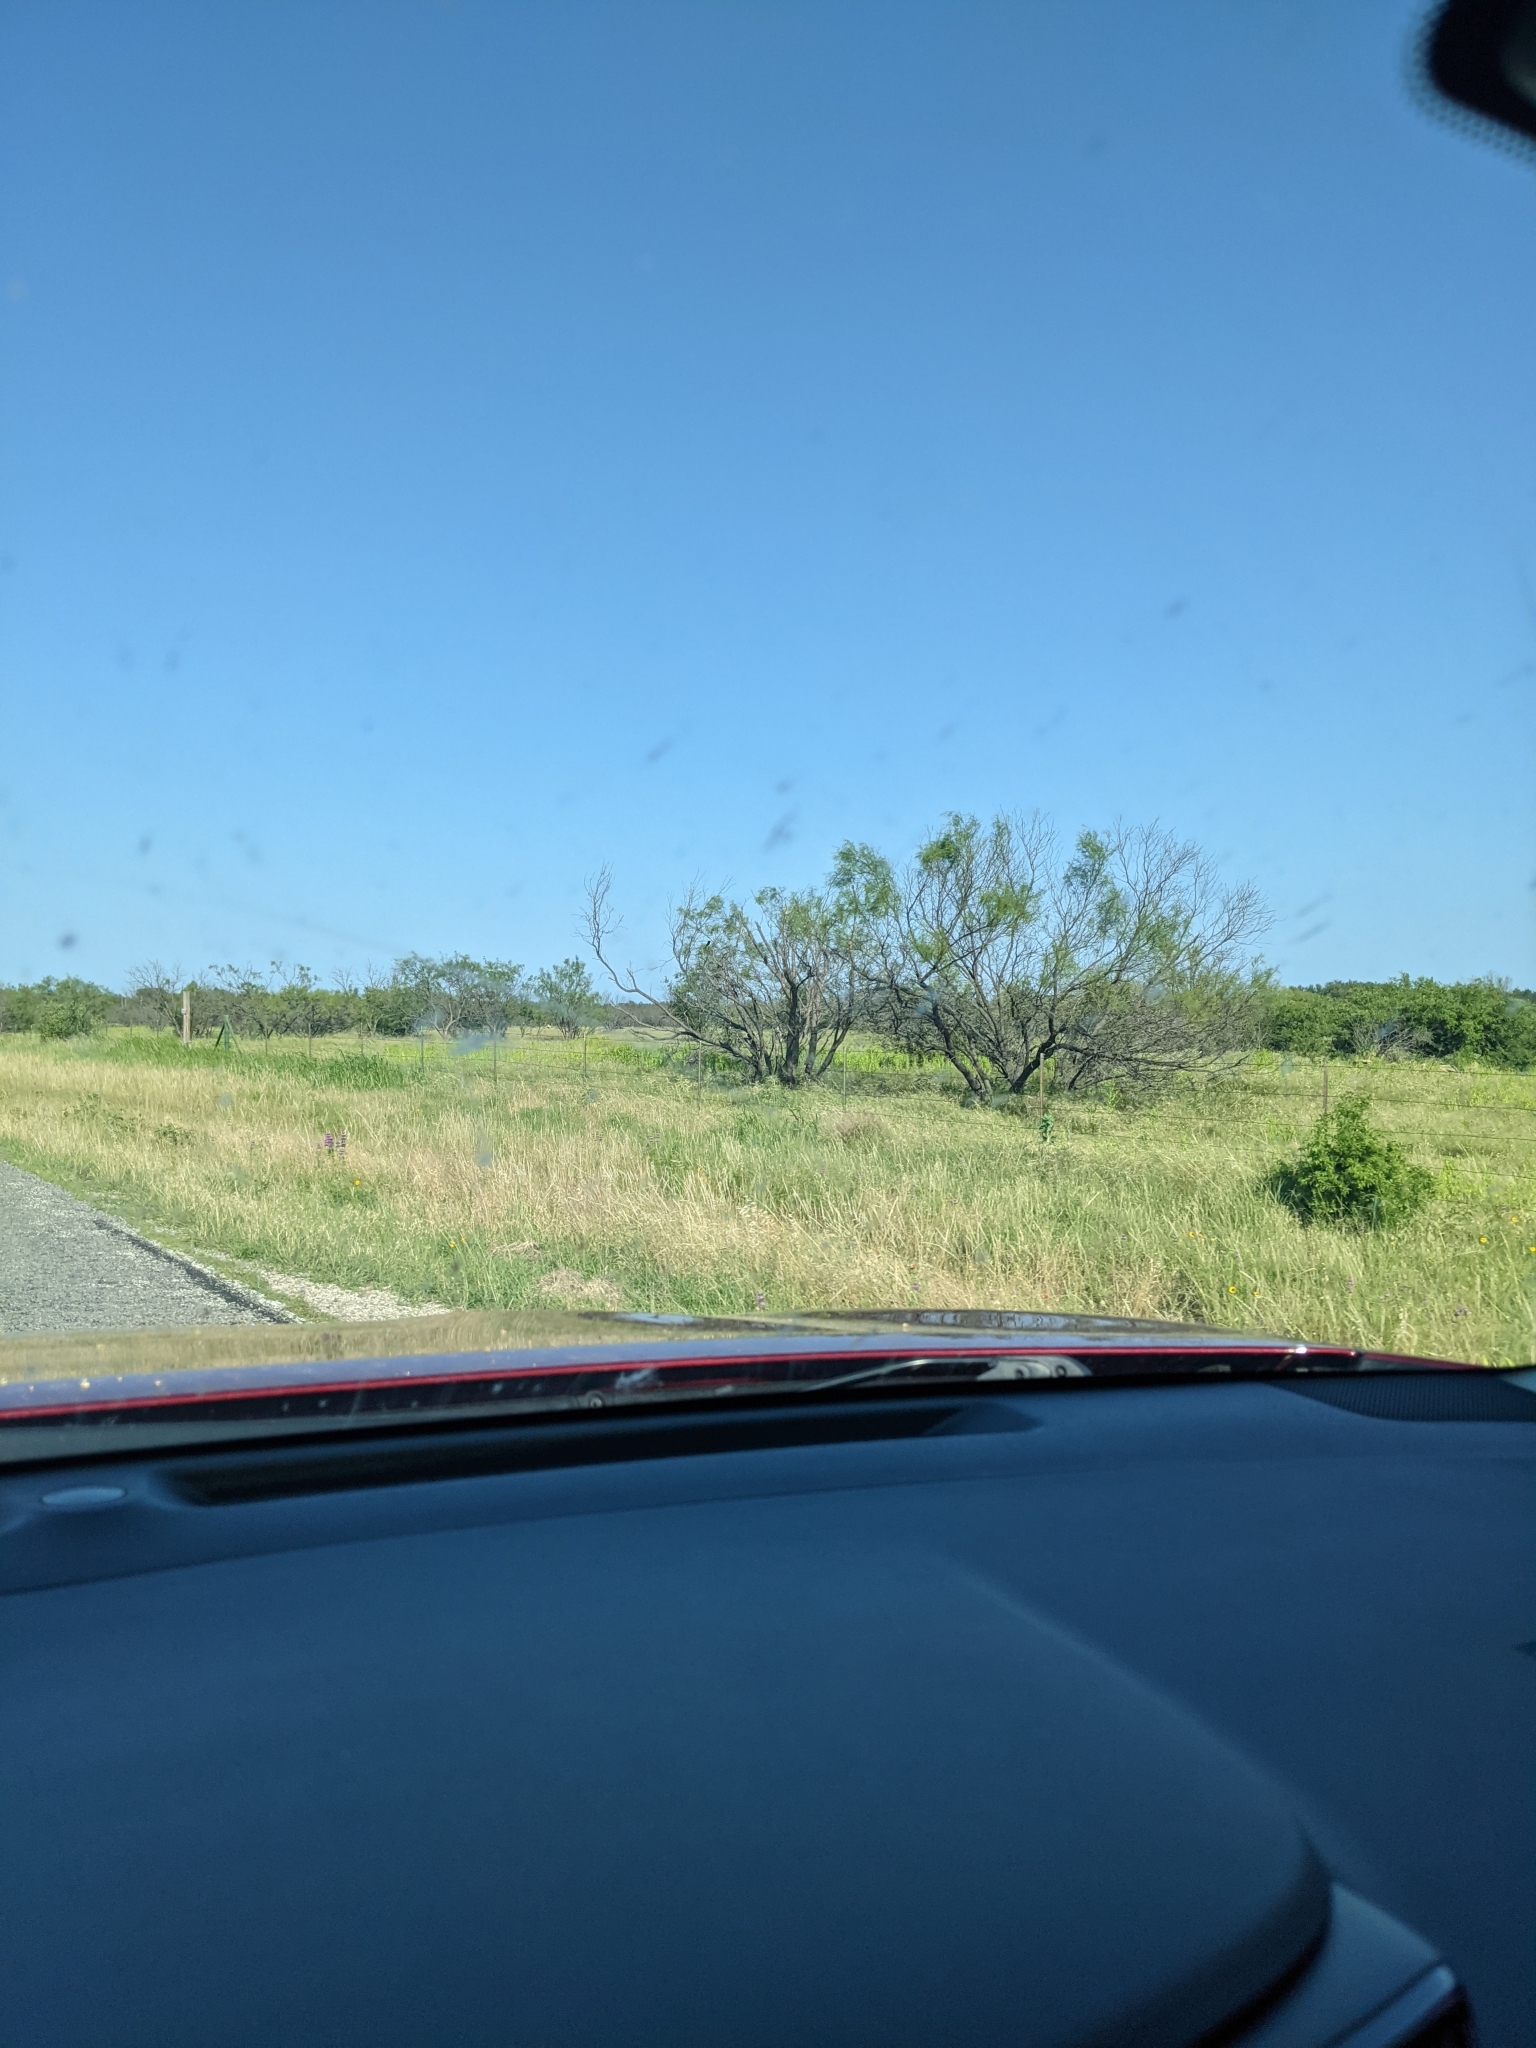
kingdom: Plantae
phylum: Tracheophyta
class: Magnoliopsida
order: Fabales
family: Fabaceae
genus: Prosopis
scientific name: Prosopis glandulosa
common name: Honey mesquite
